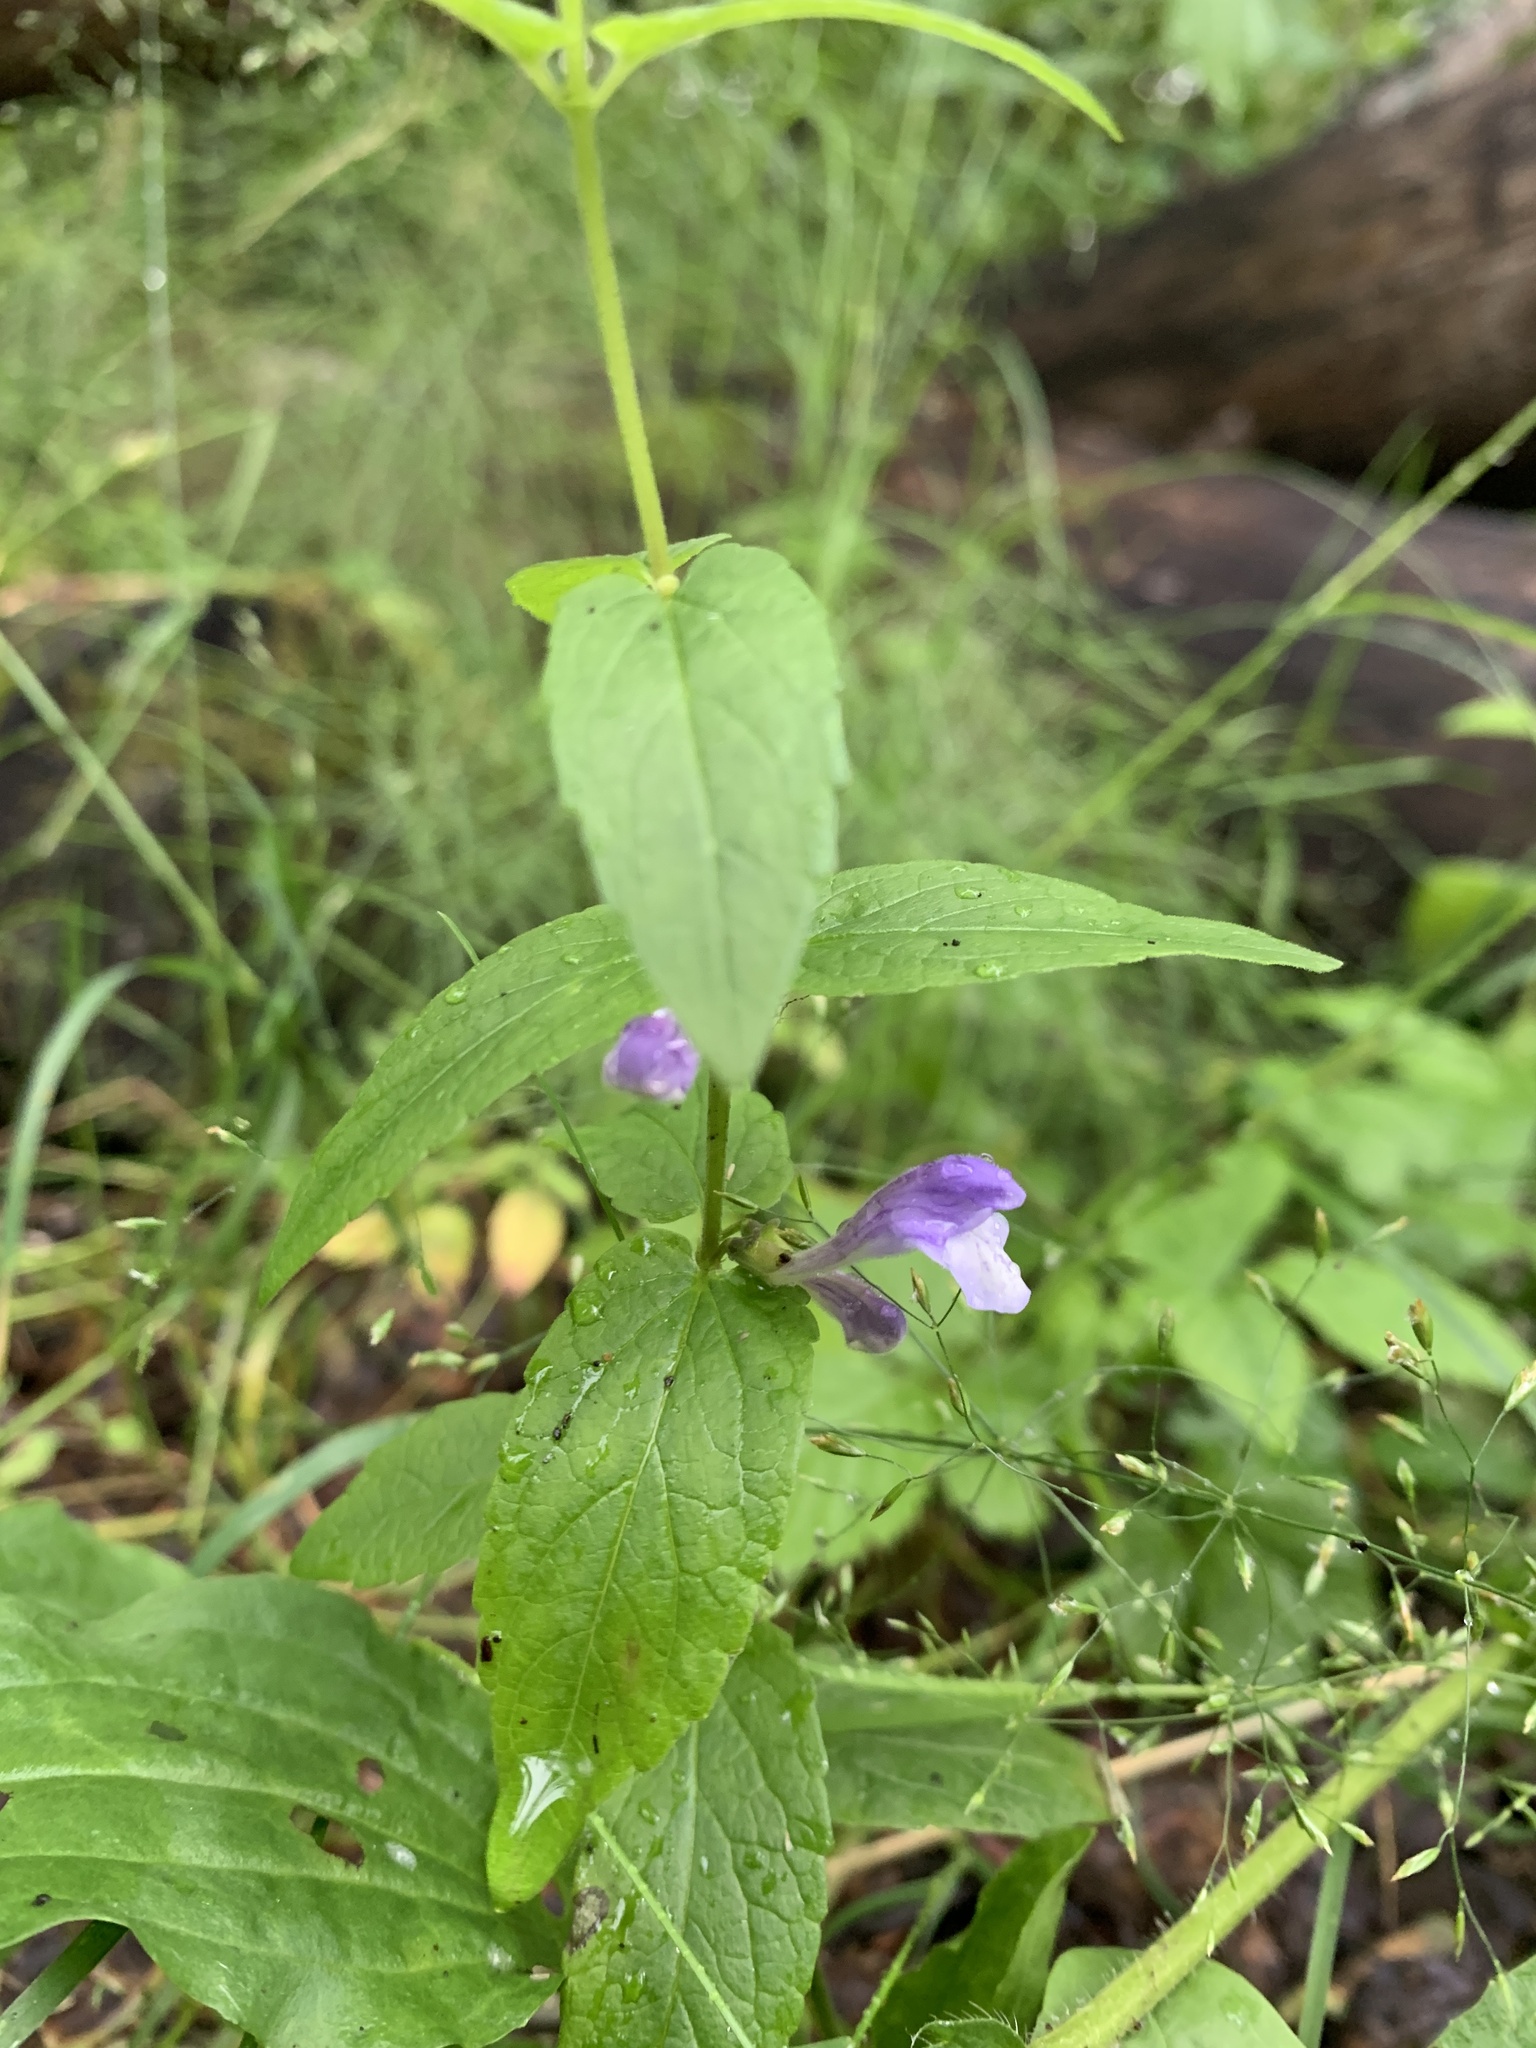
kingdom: Plantae
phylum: Tracheophyta
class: Magnoliopsida
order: Lamiales
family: Lamiaceae
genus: Scutellaria
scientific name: Scutellaria galericulata
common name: Skullcap
